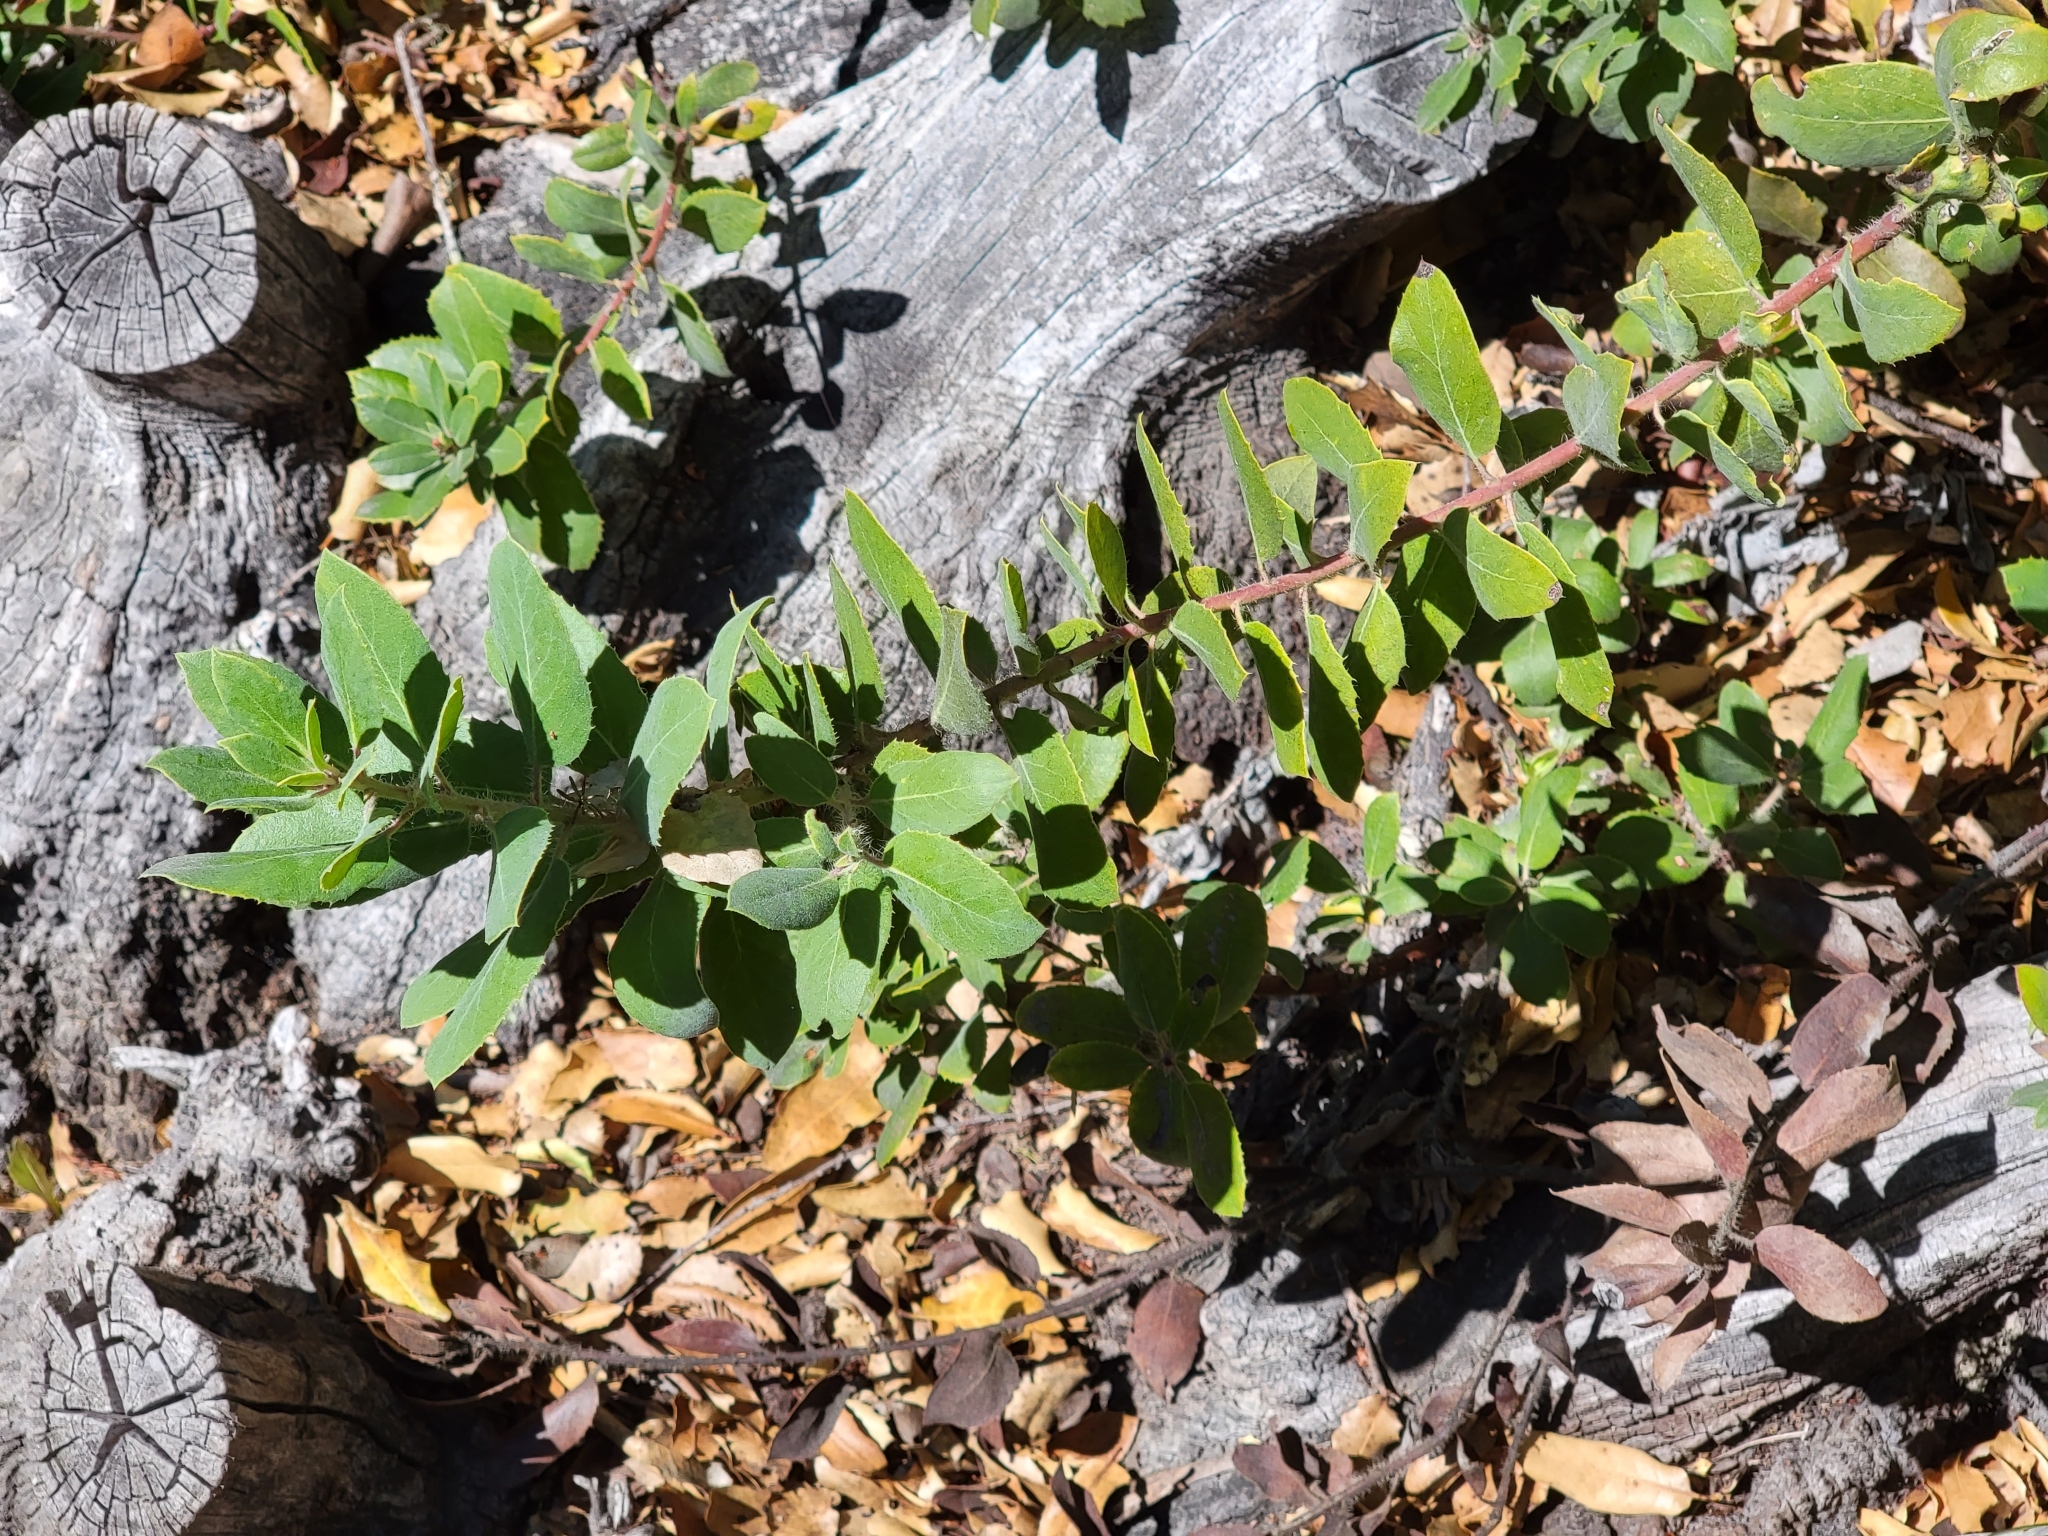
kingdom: Plantae
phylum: Tracheophyta
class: Magnoliopsida
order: Ericales
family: Ericaceae
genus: Arctostaphylos
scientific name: Arctostaphylos crustacea
